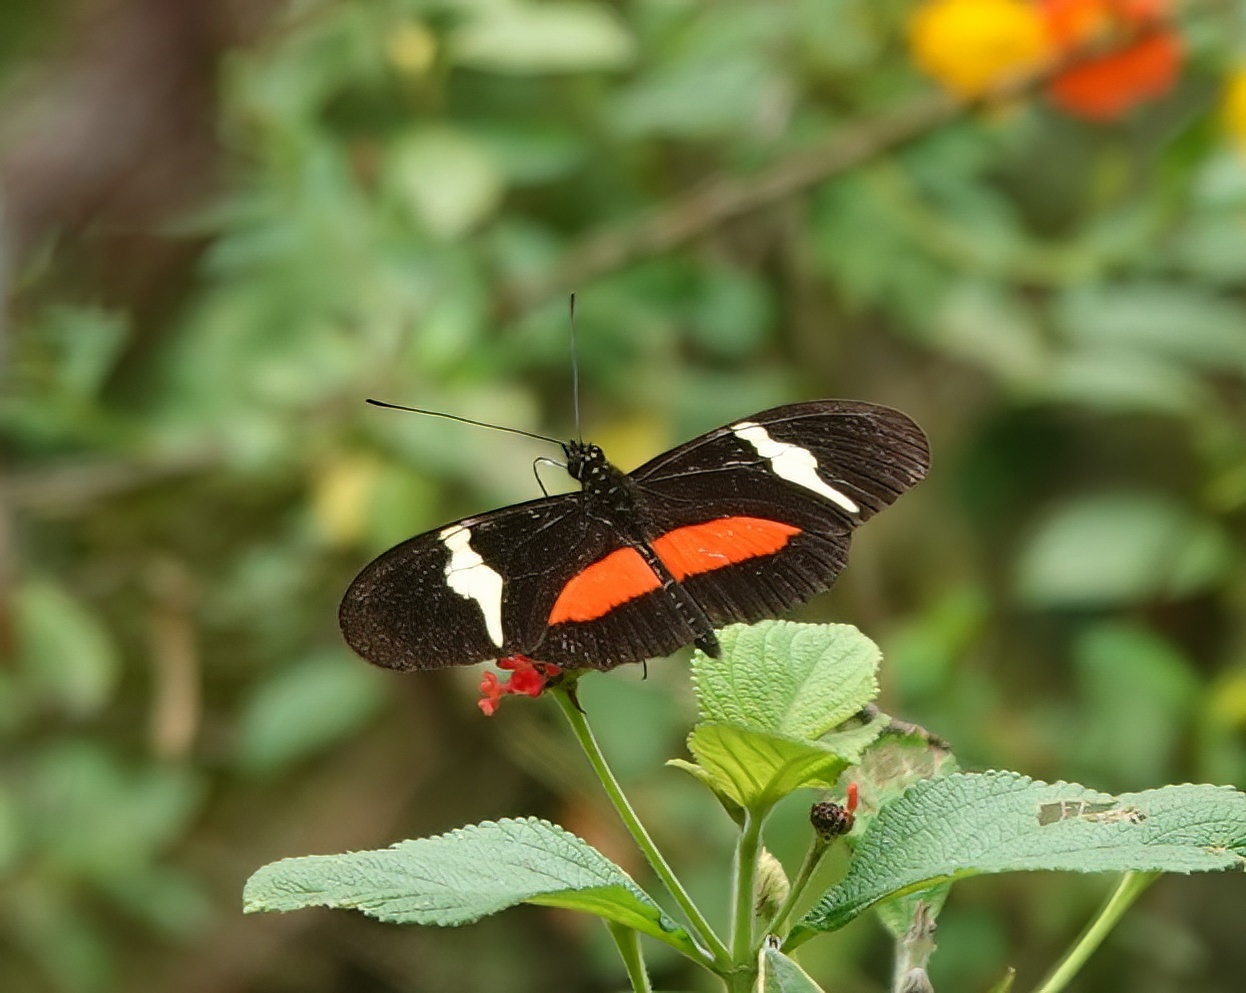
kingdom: Animalia
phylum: Arthropoda
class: Insecta
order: Lepidoptera
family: Nymphalidae
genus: Heliconius
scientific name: Heliconius clysonymus
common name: Clysonymus longwing
